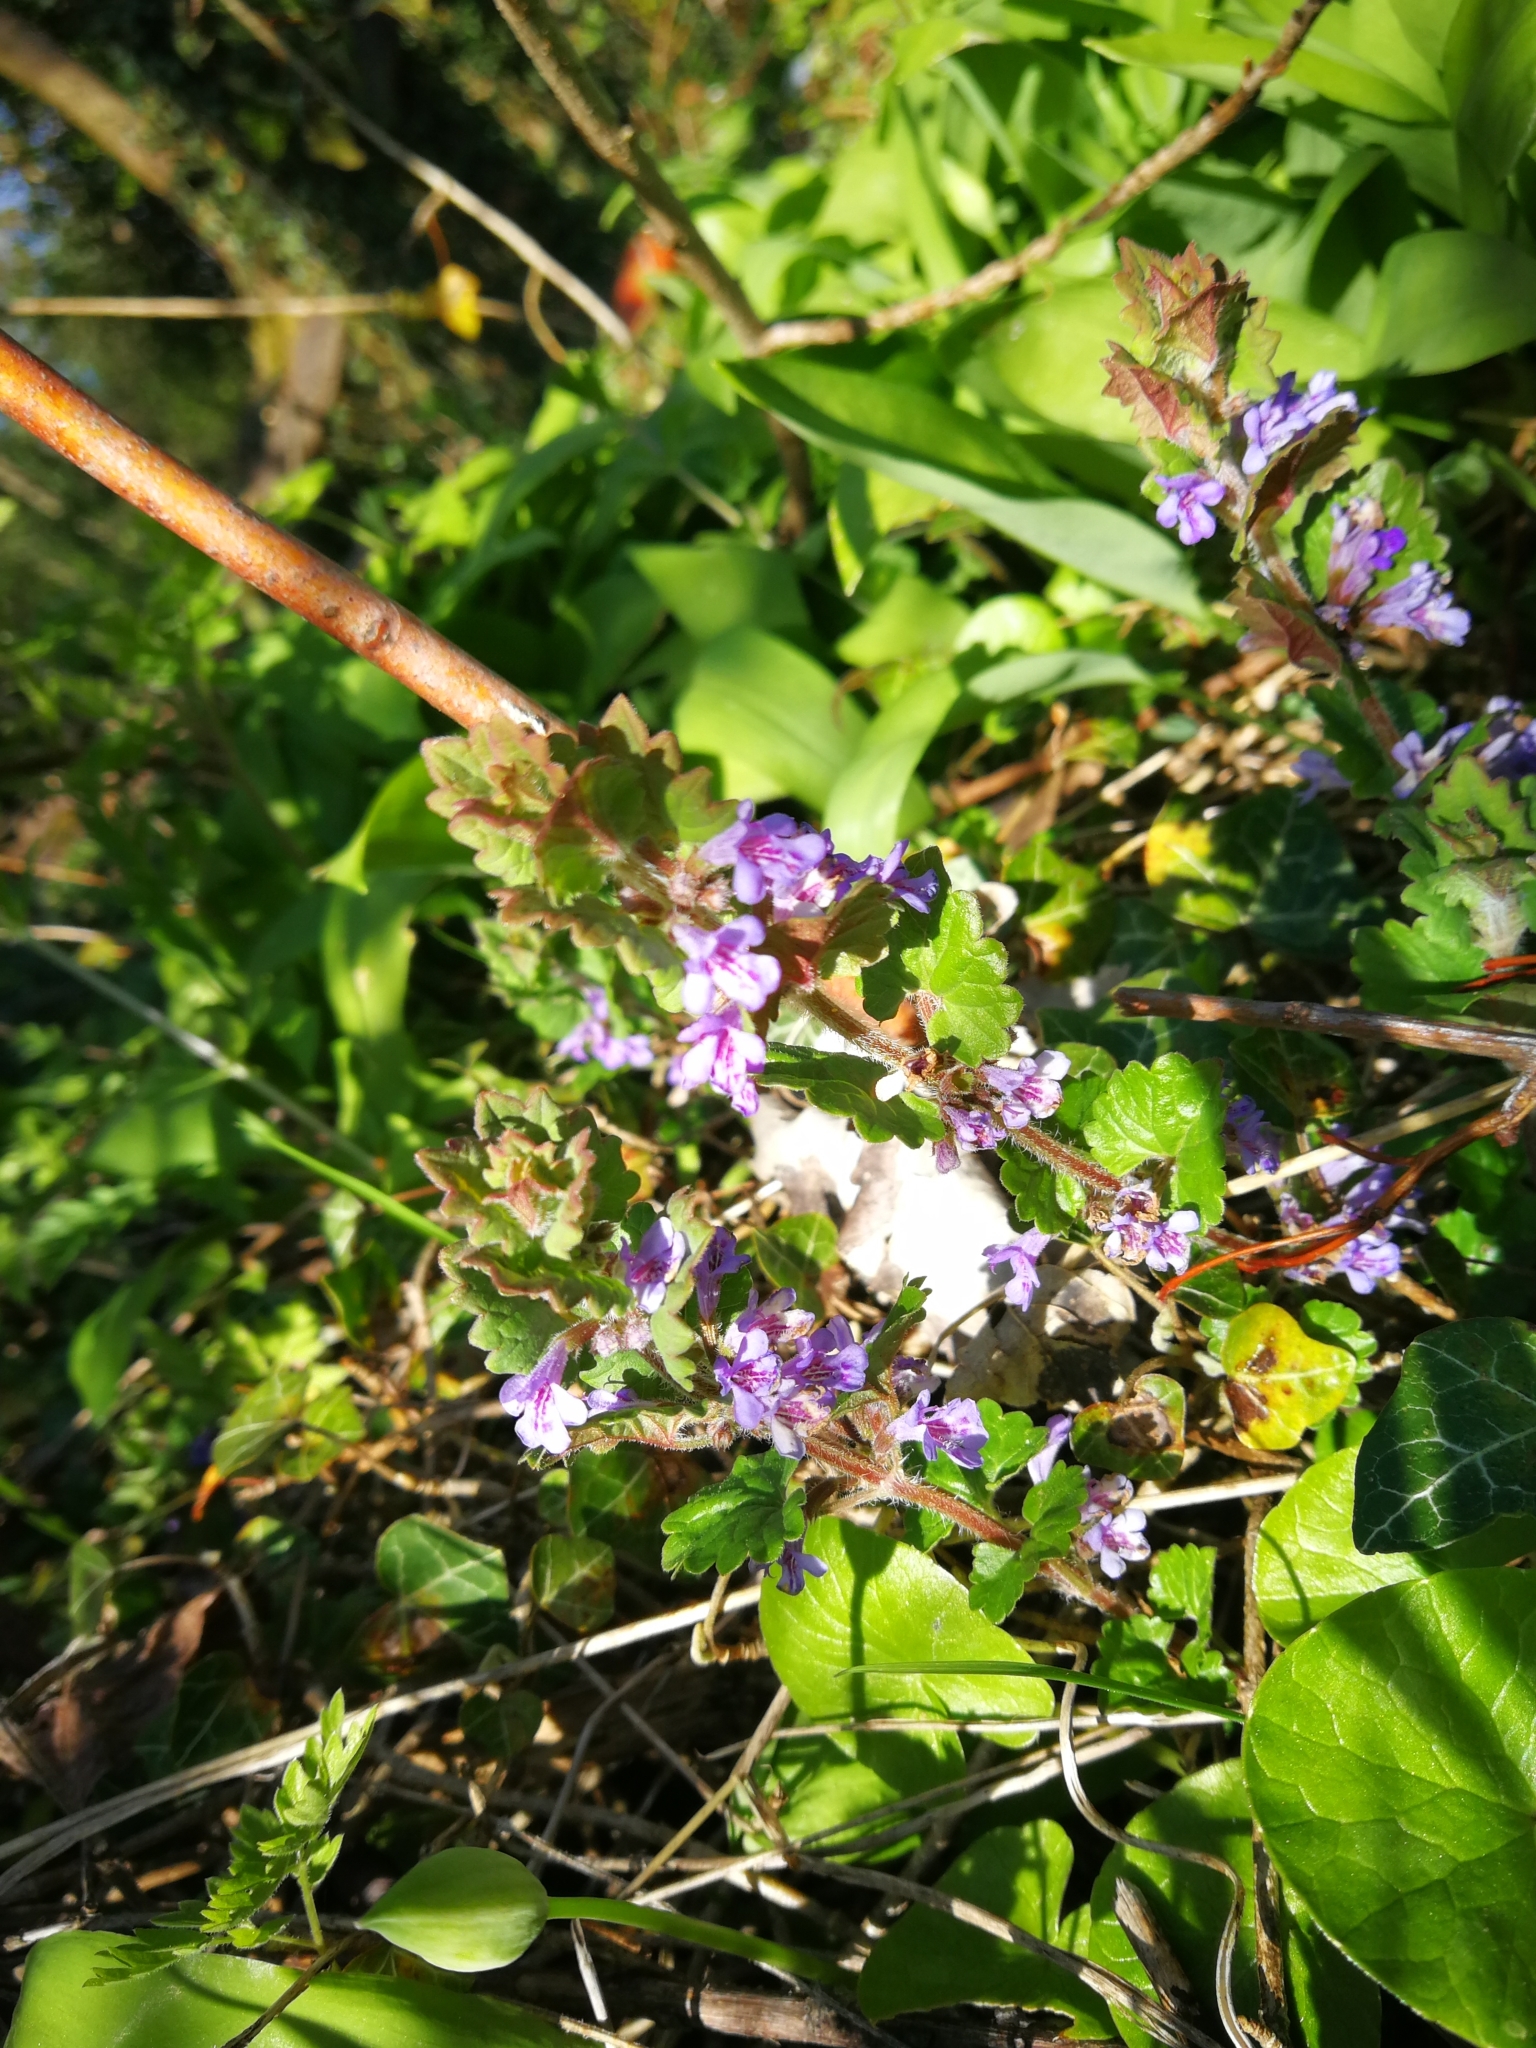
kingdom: Plantae
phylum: Tracheophyta
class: Magnoliopsida
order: Lamiales
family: Lamiaceae
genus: Glechoma
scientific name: Glechoma hederacea
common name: Ground ivy
